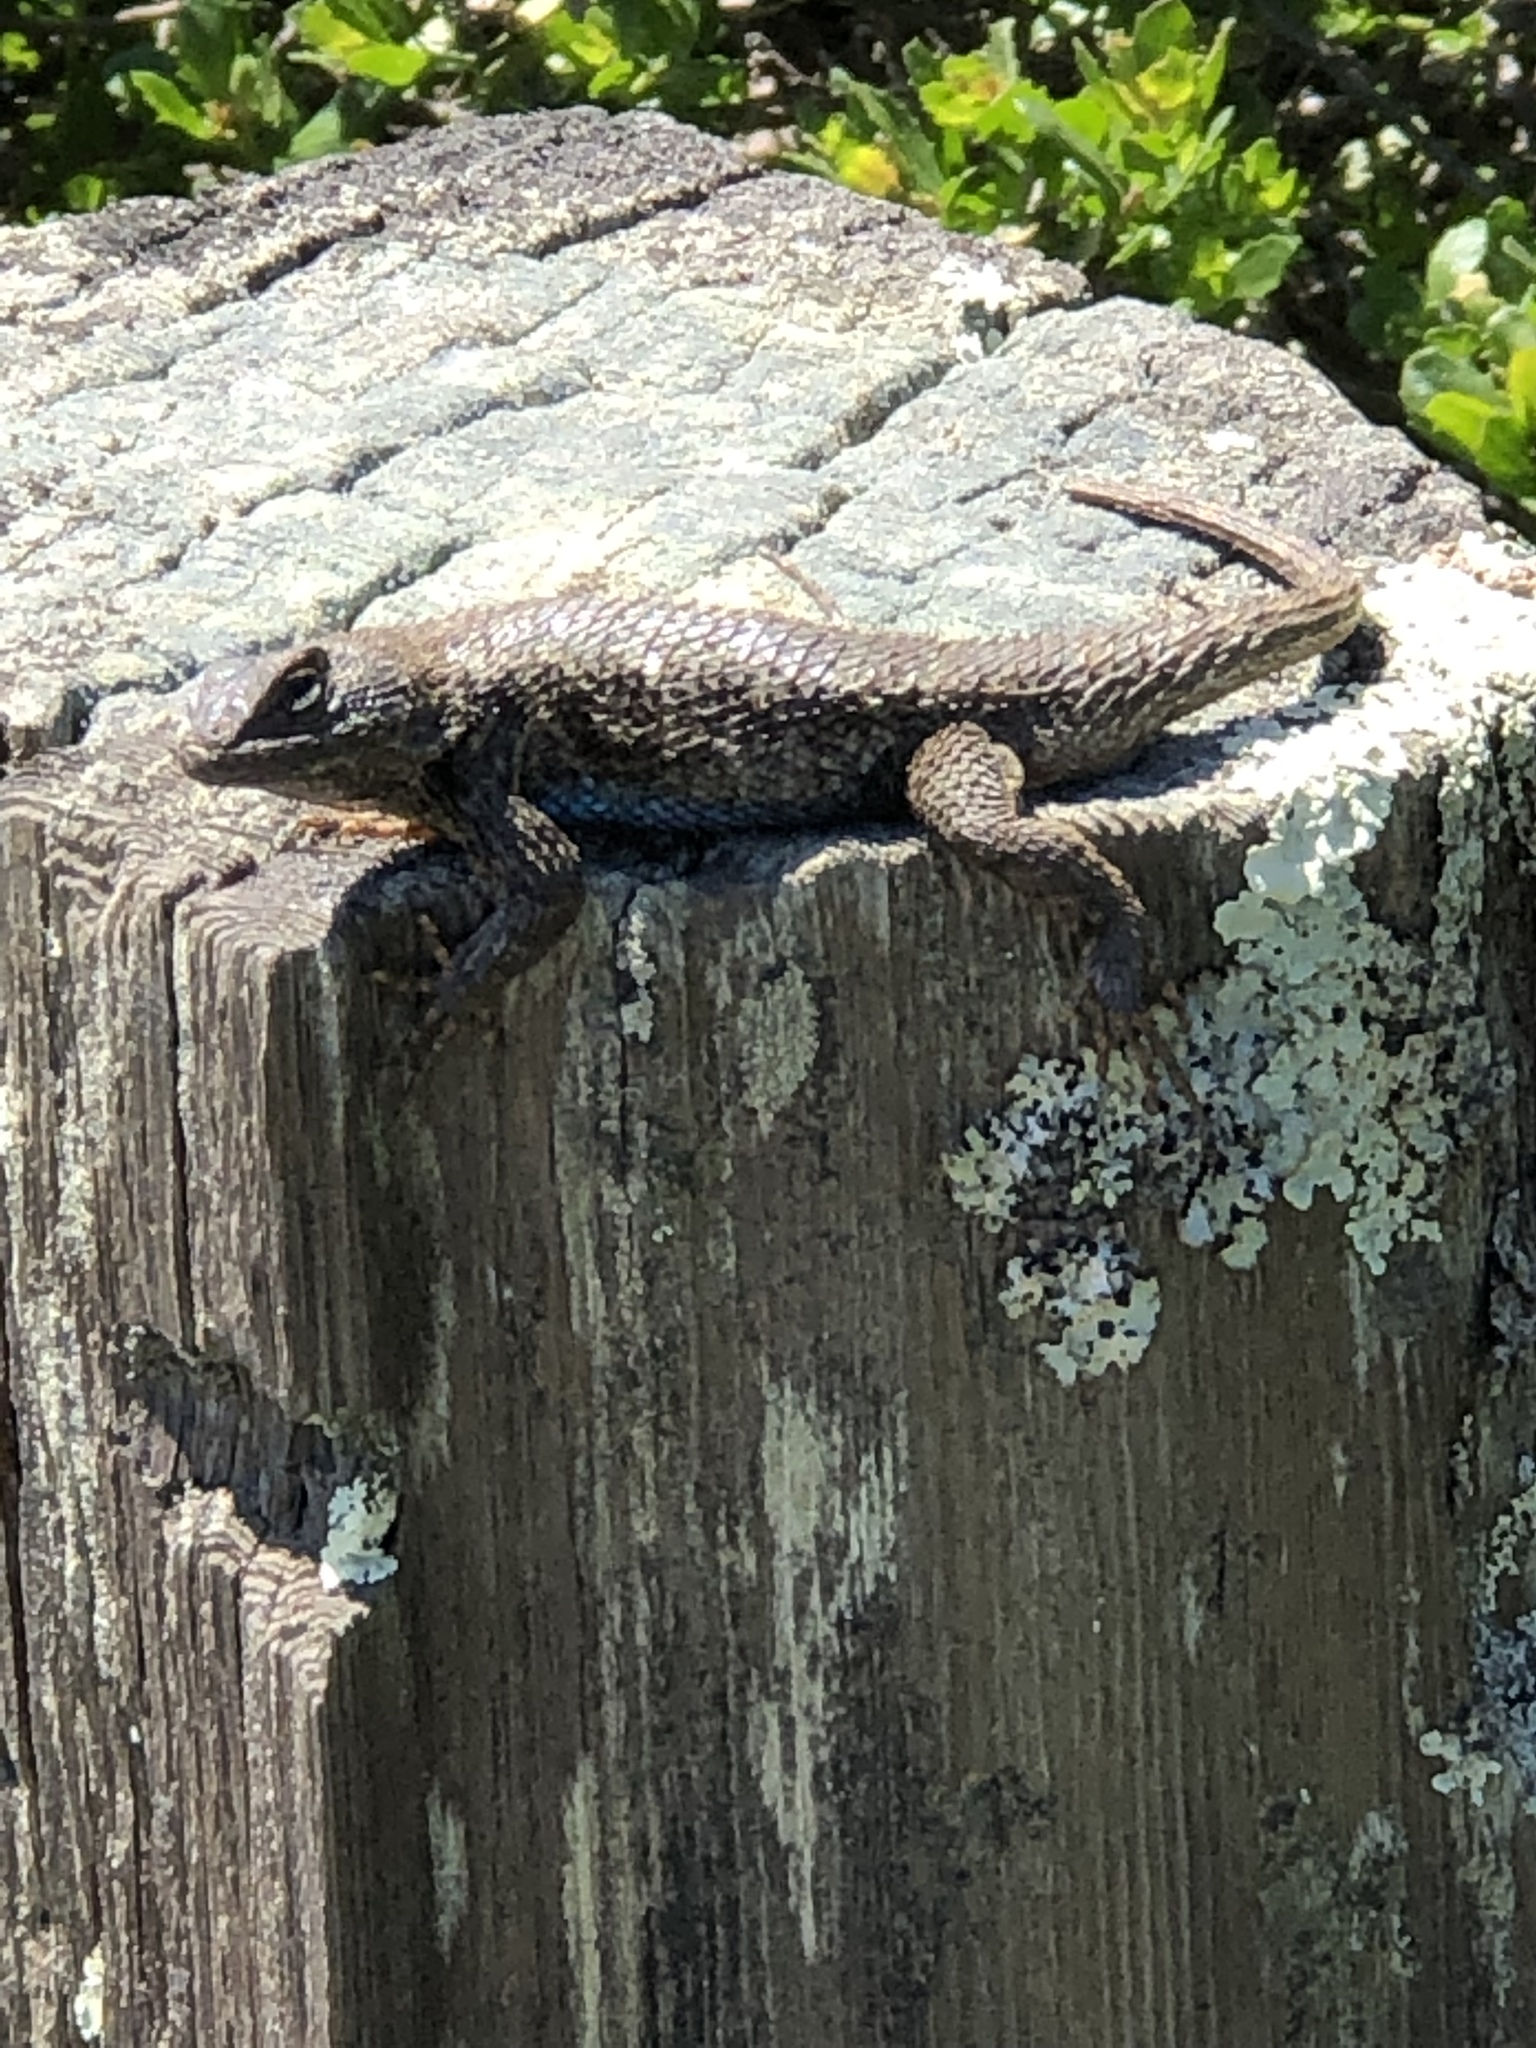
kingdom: Animalia
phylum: Chordata
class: Squamata
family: Phrynosomatidae
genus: Sceloporus
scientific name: Sceloporus occidentalis
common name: Western fence lizard
